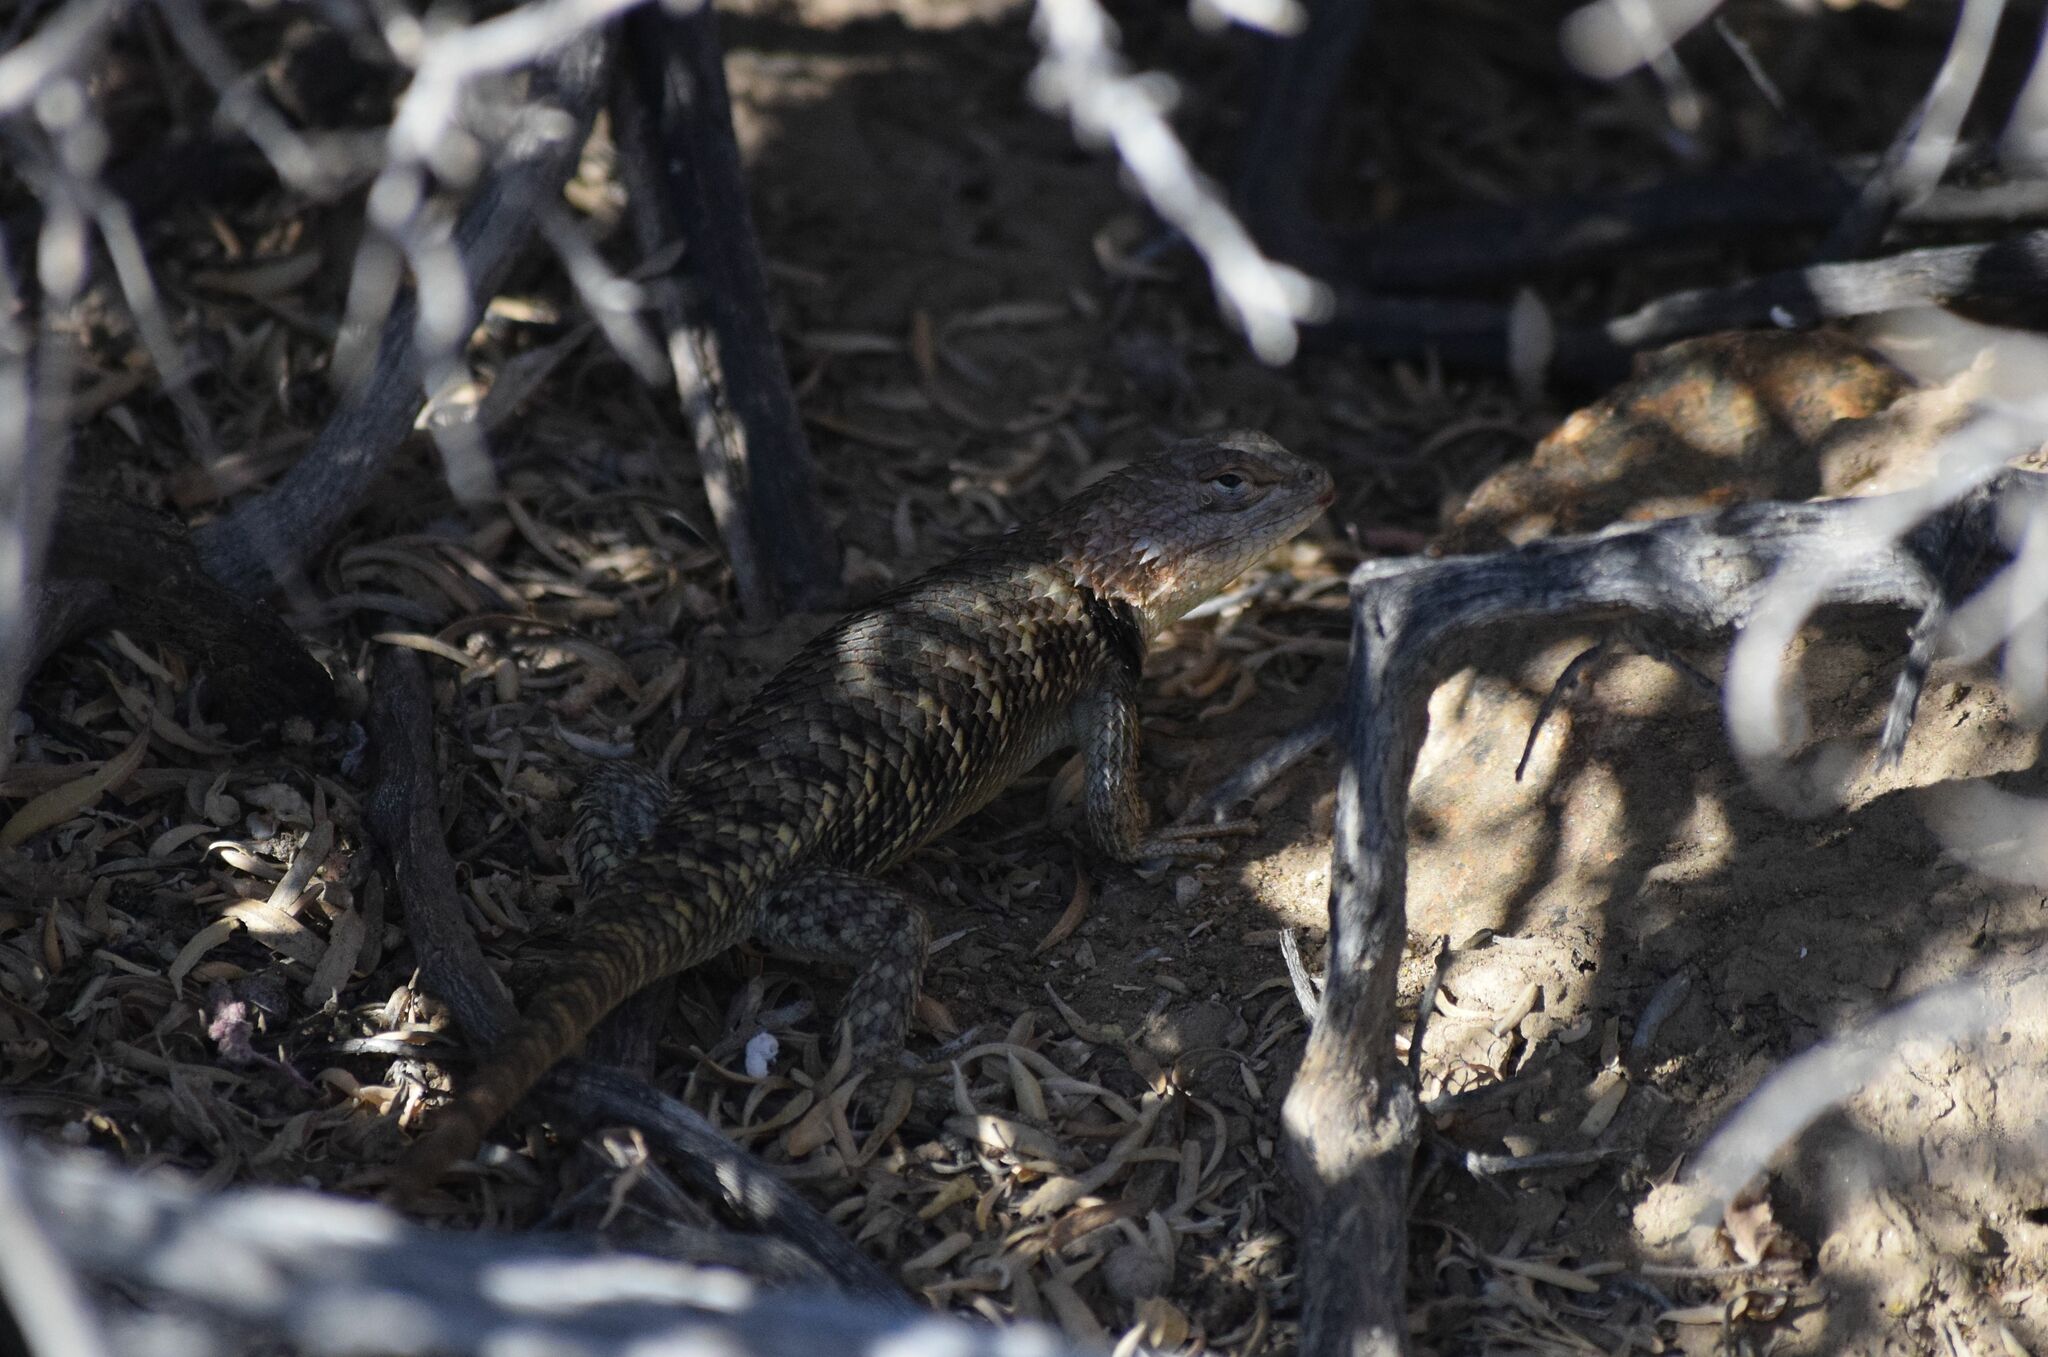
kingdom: Animalia
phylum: Chordata
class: Squamata
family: Phrynosomatidae
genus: Sceloporus
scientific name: Sceloporus magister
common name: Desert spiny lizard
